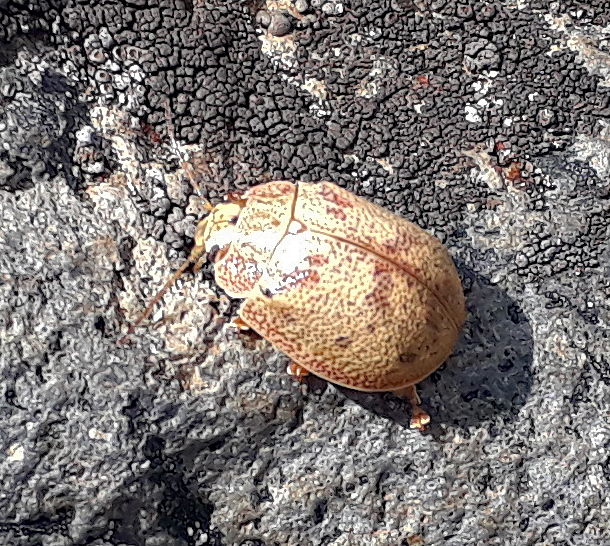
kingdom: Animalia
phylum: Arthropoda
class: Insecta
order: Coleoptera
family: Chrysomelidae
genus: Paropsis
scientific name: Paropsis charybdis
